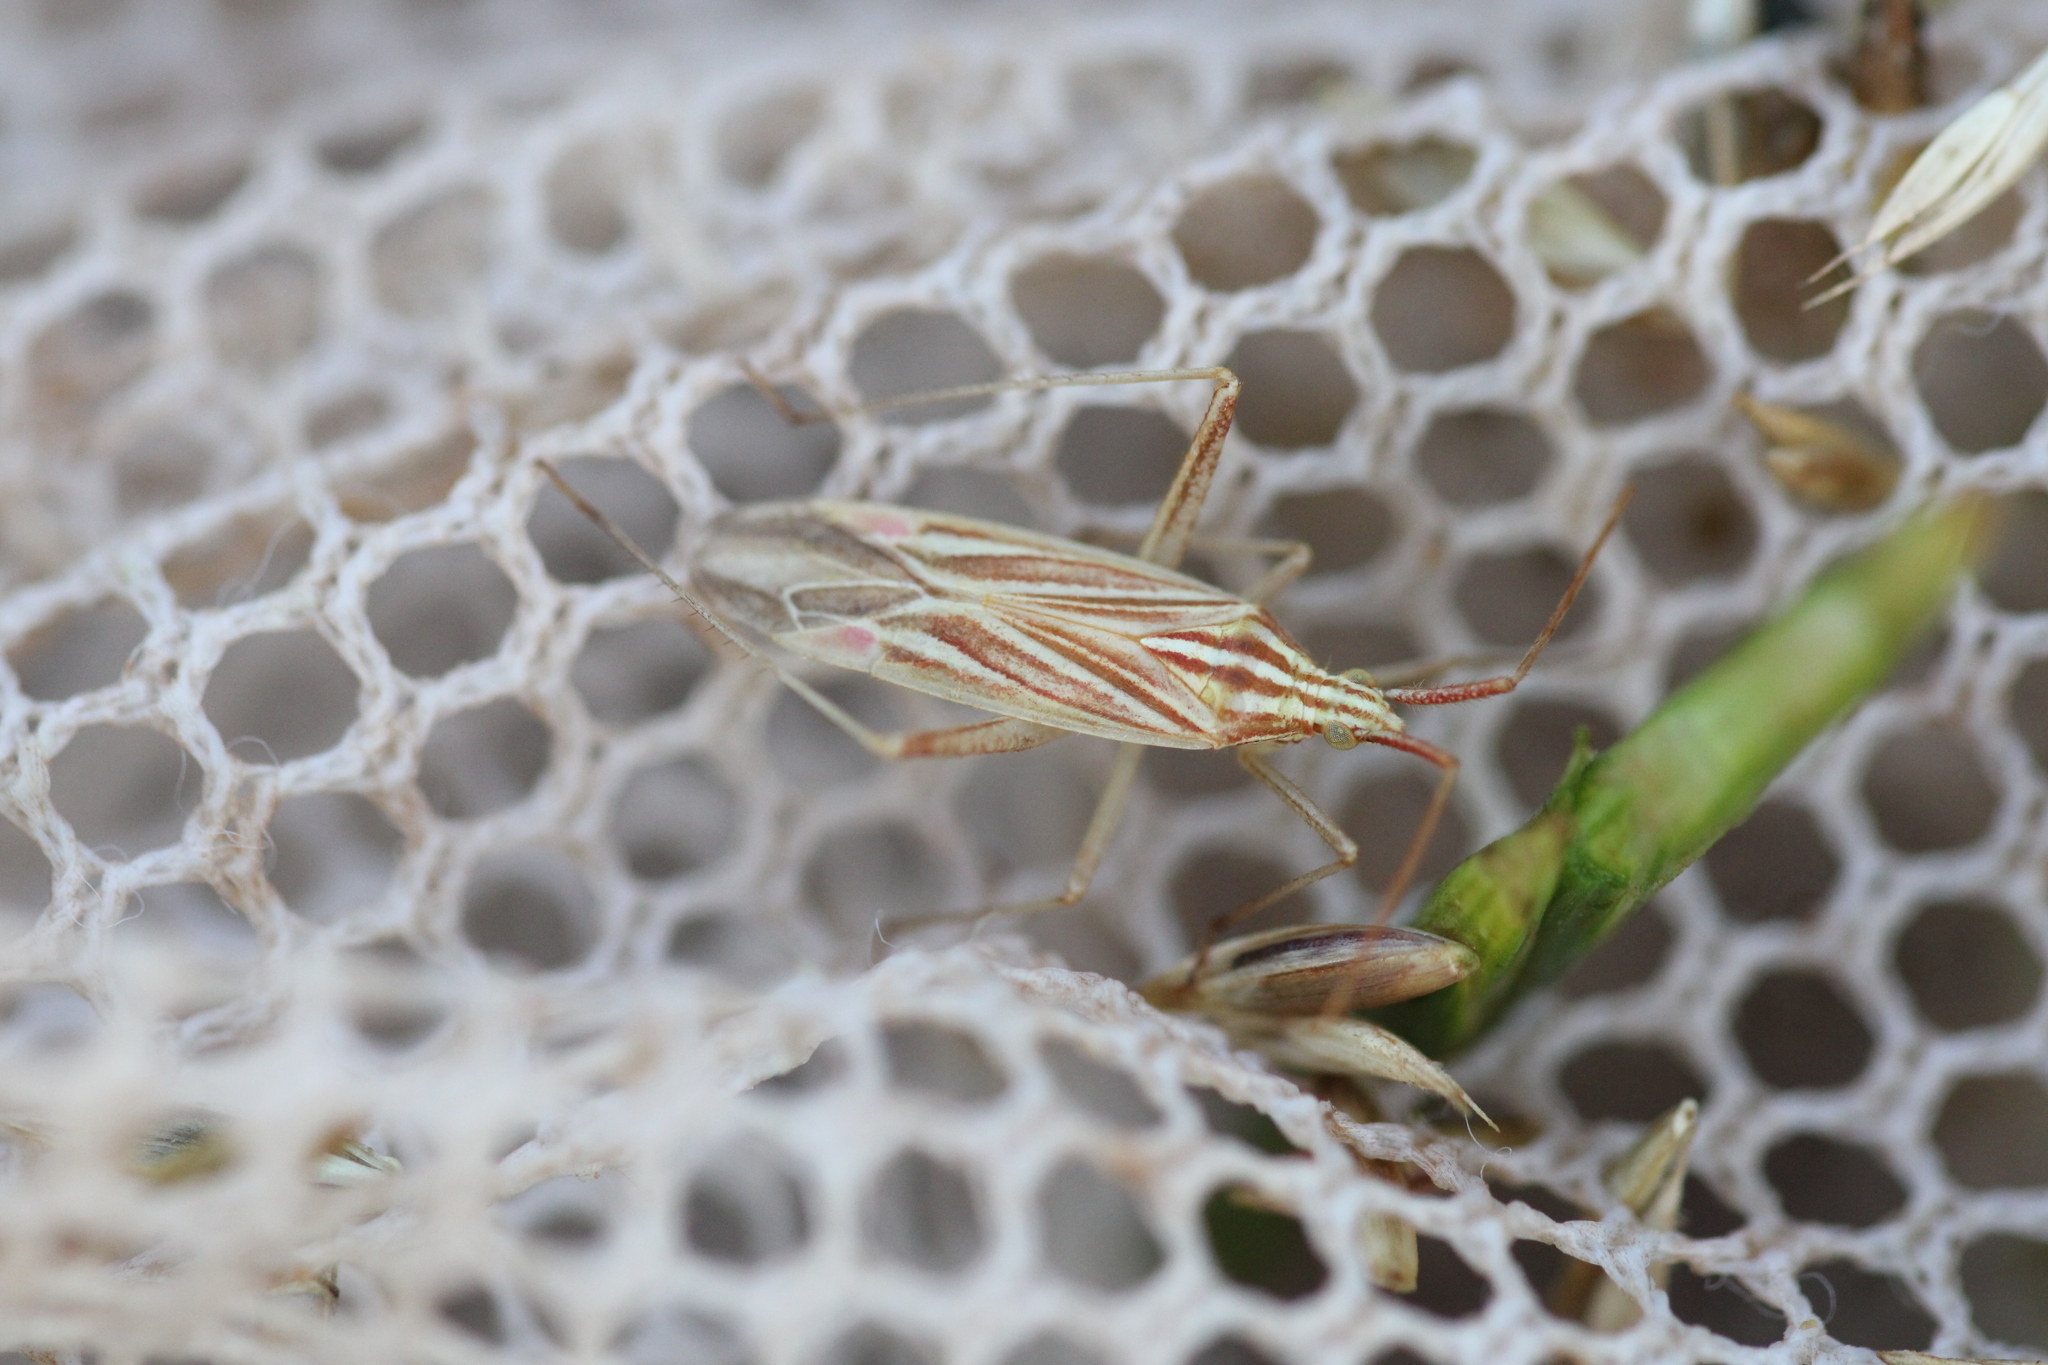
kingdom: Animalia
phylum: Arthropoda
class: Insecta
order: Hemiptera
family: Miridae
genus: Miridius
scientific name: Miridius quadrivirgatus
